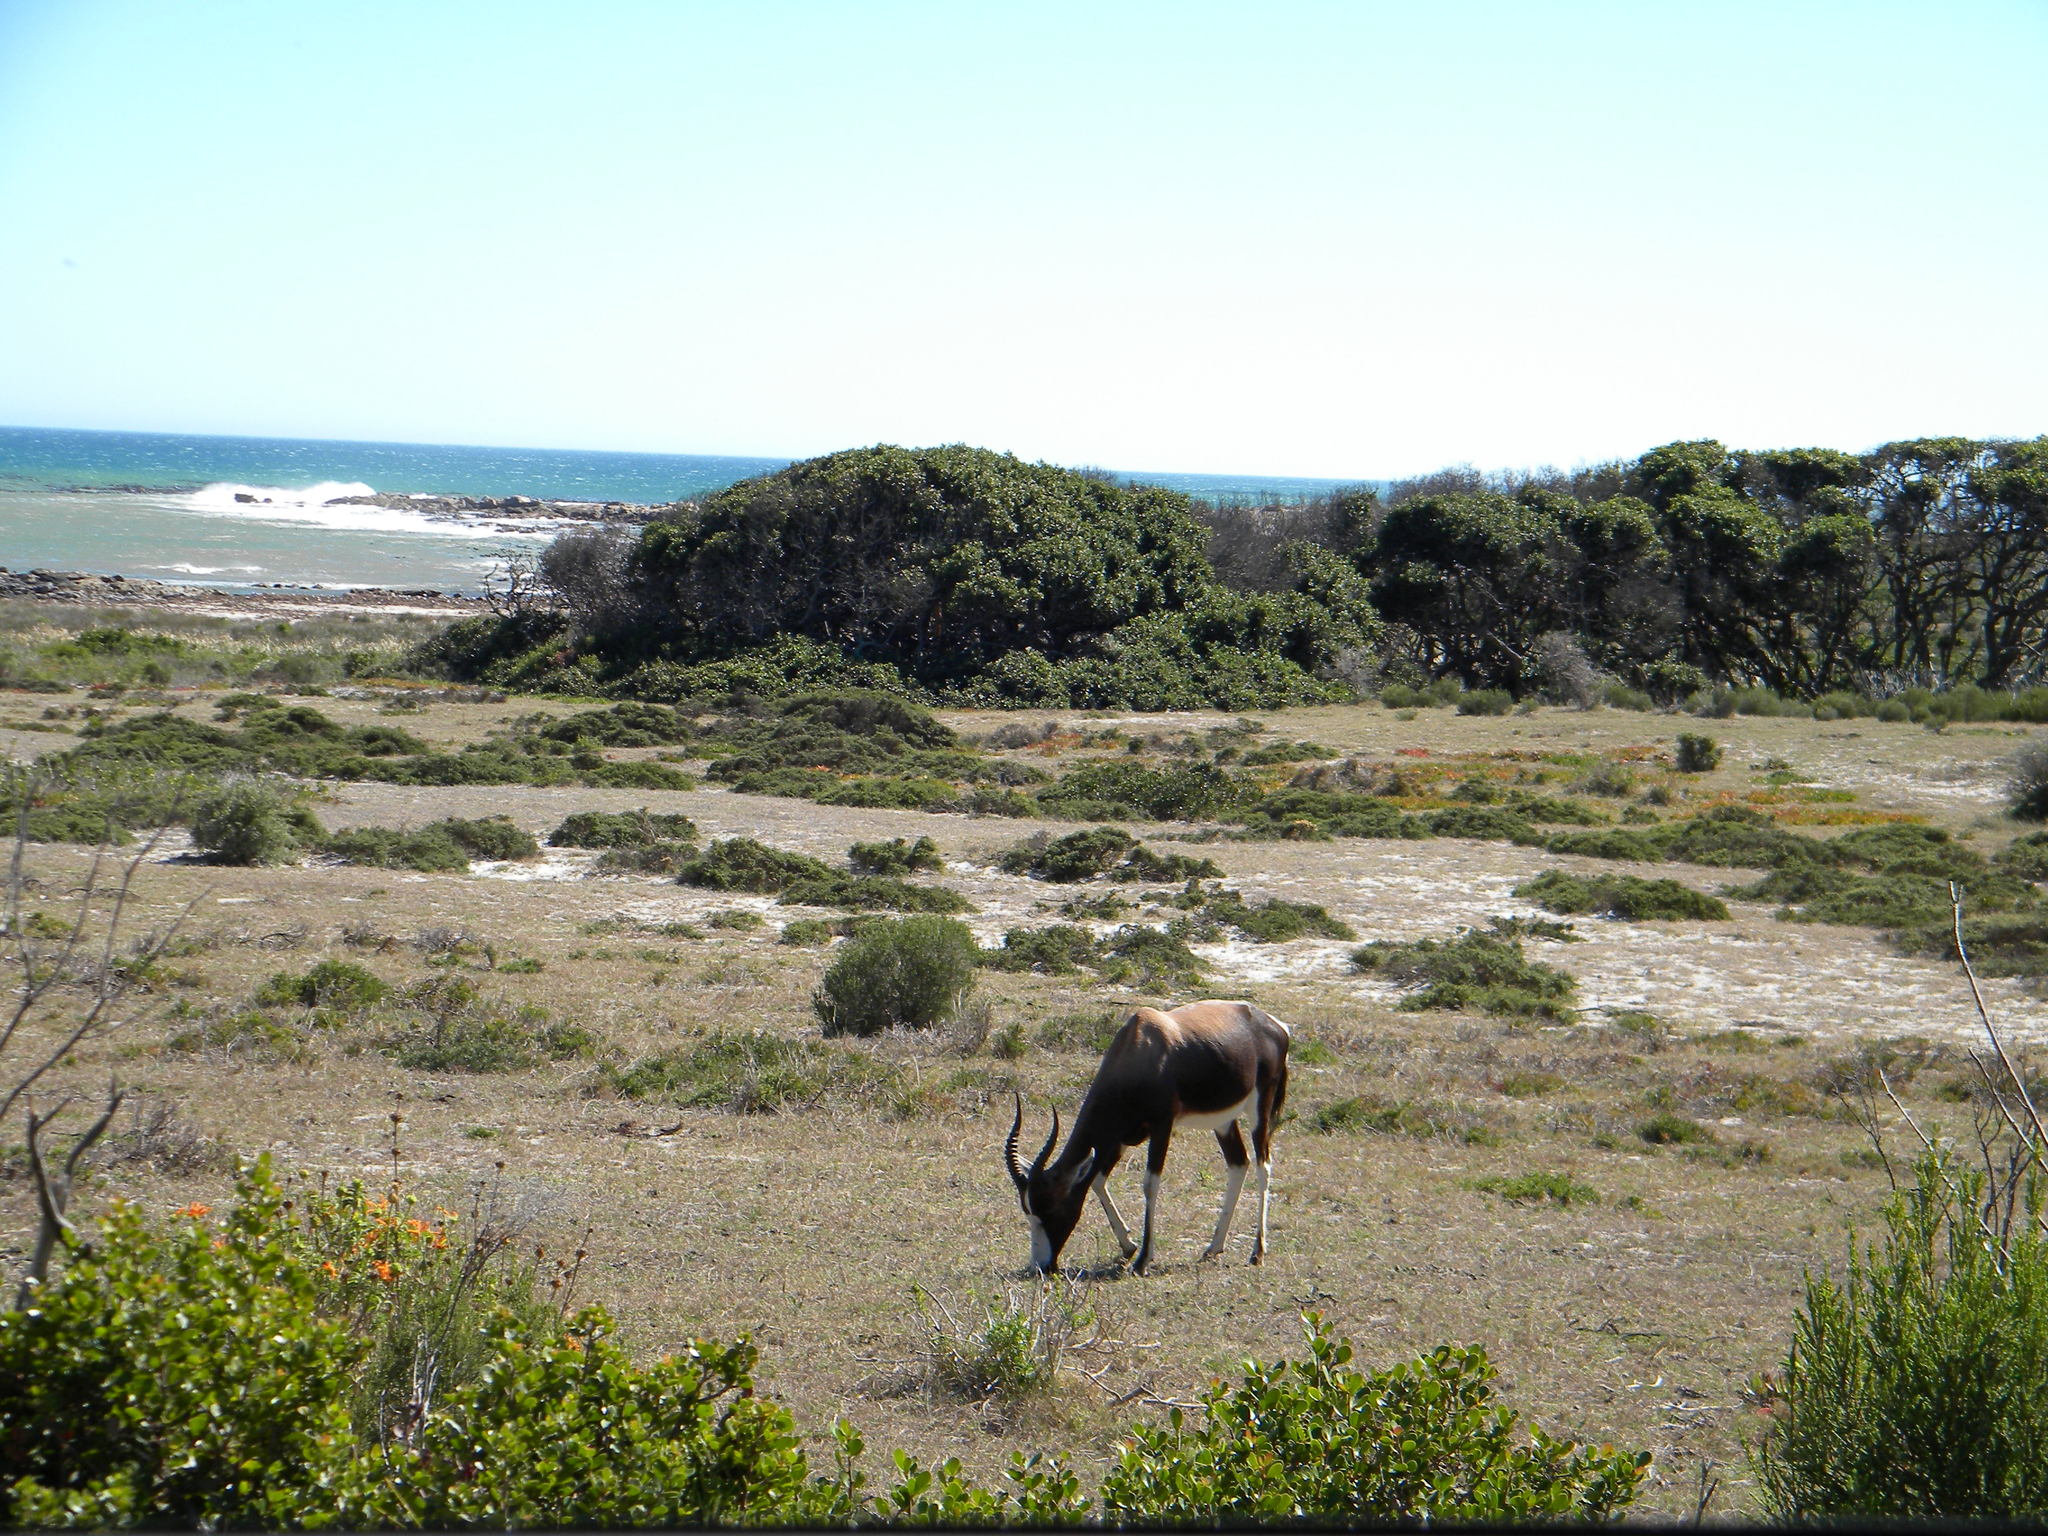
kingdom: Animalia
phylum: Chordata
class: Mammalia
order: Artiodactyla
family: Bovidae
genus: Damaliscus
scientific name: Damaliscus pygargus
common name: Bontebok
